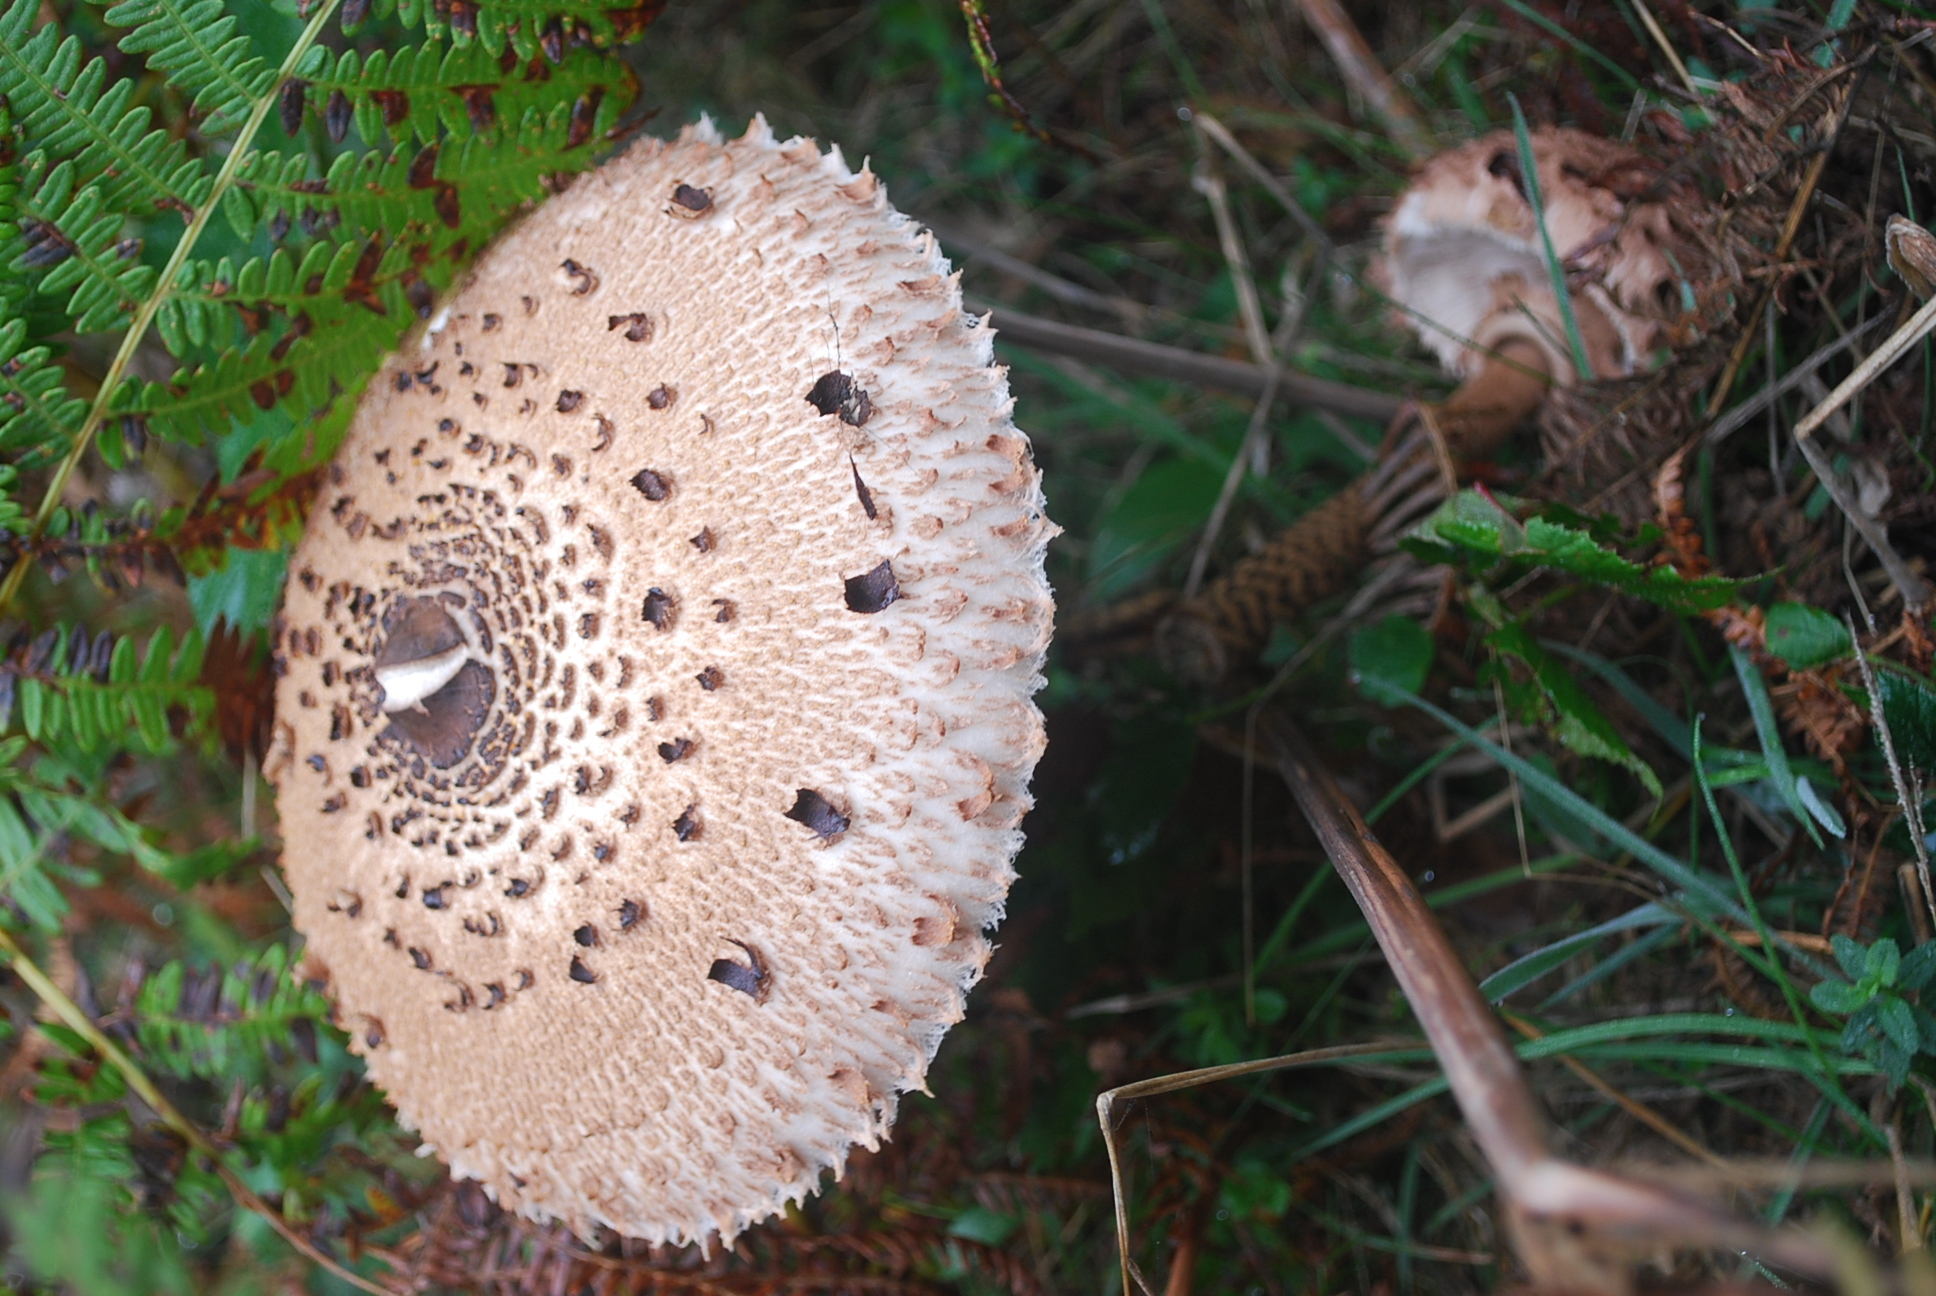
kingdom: Fungi
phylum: Basidiomycota
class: Agaricomycetes
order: Agaricales
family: Agaricaceae
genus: Macrolepiota
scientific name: Macrolepiota procera
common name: Parasol
